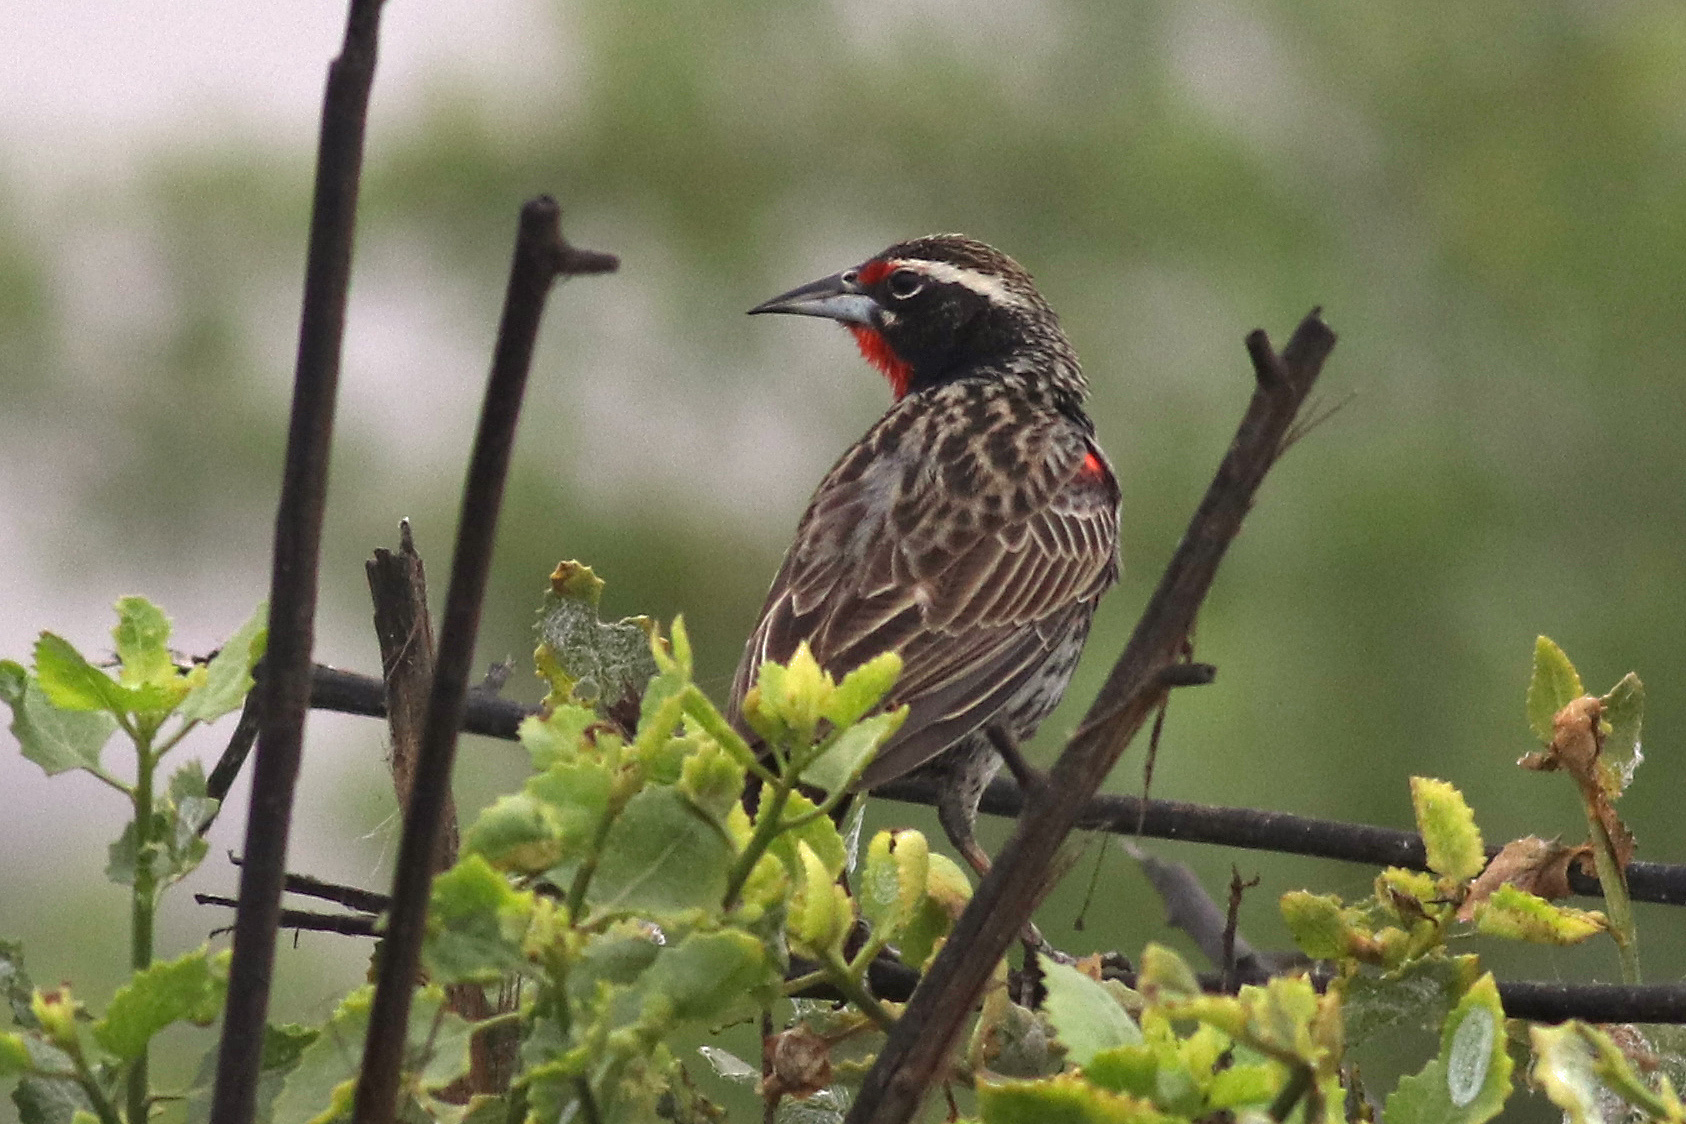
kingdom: Animalia
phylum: Chordata
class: Aves
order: Passeriformes
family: Icteridae
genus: Sturnella
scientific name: Sturnella bellicosa
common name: Peruvian meadowlark
